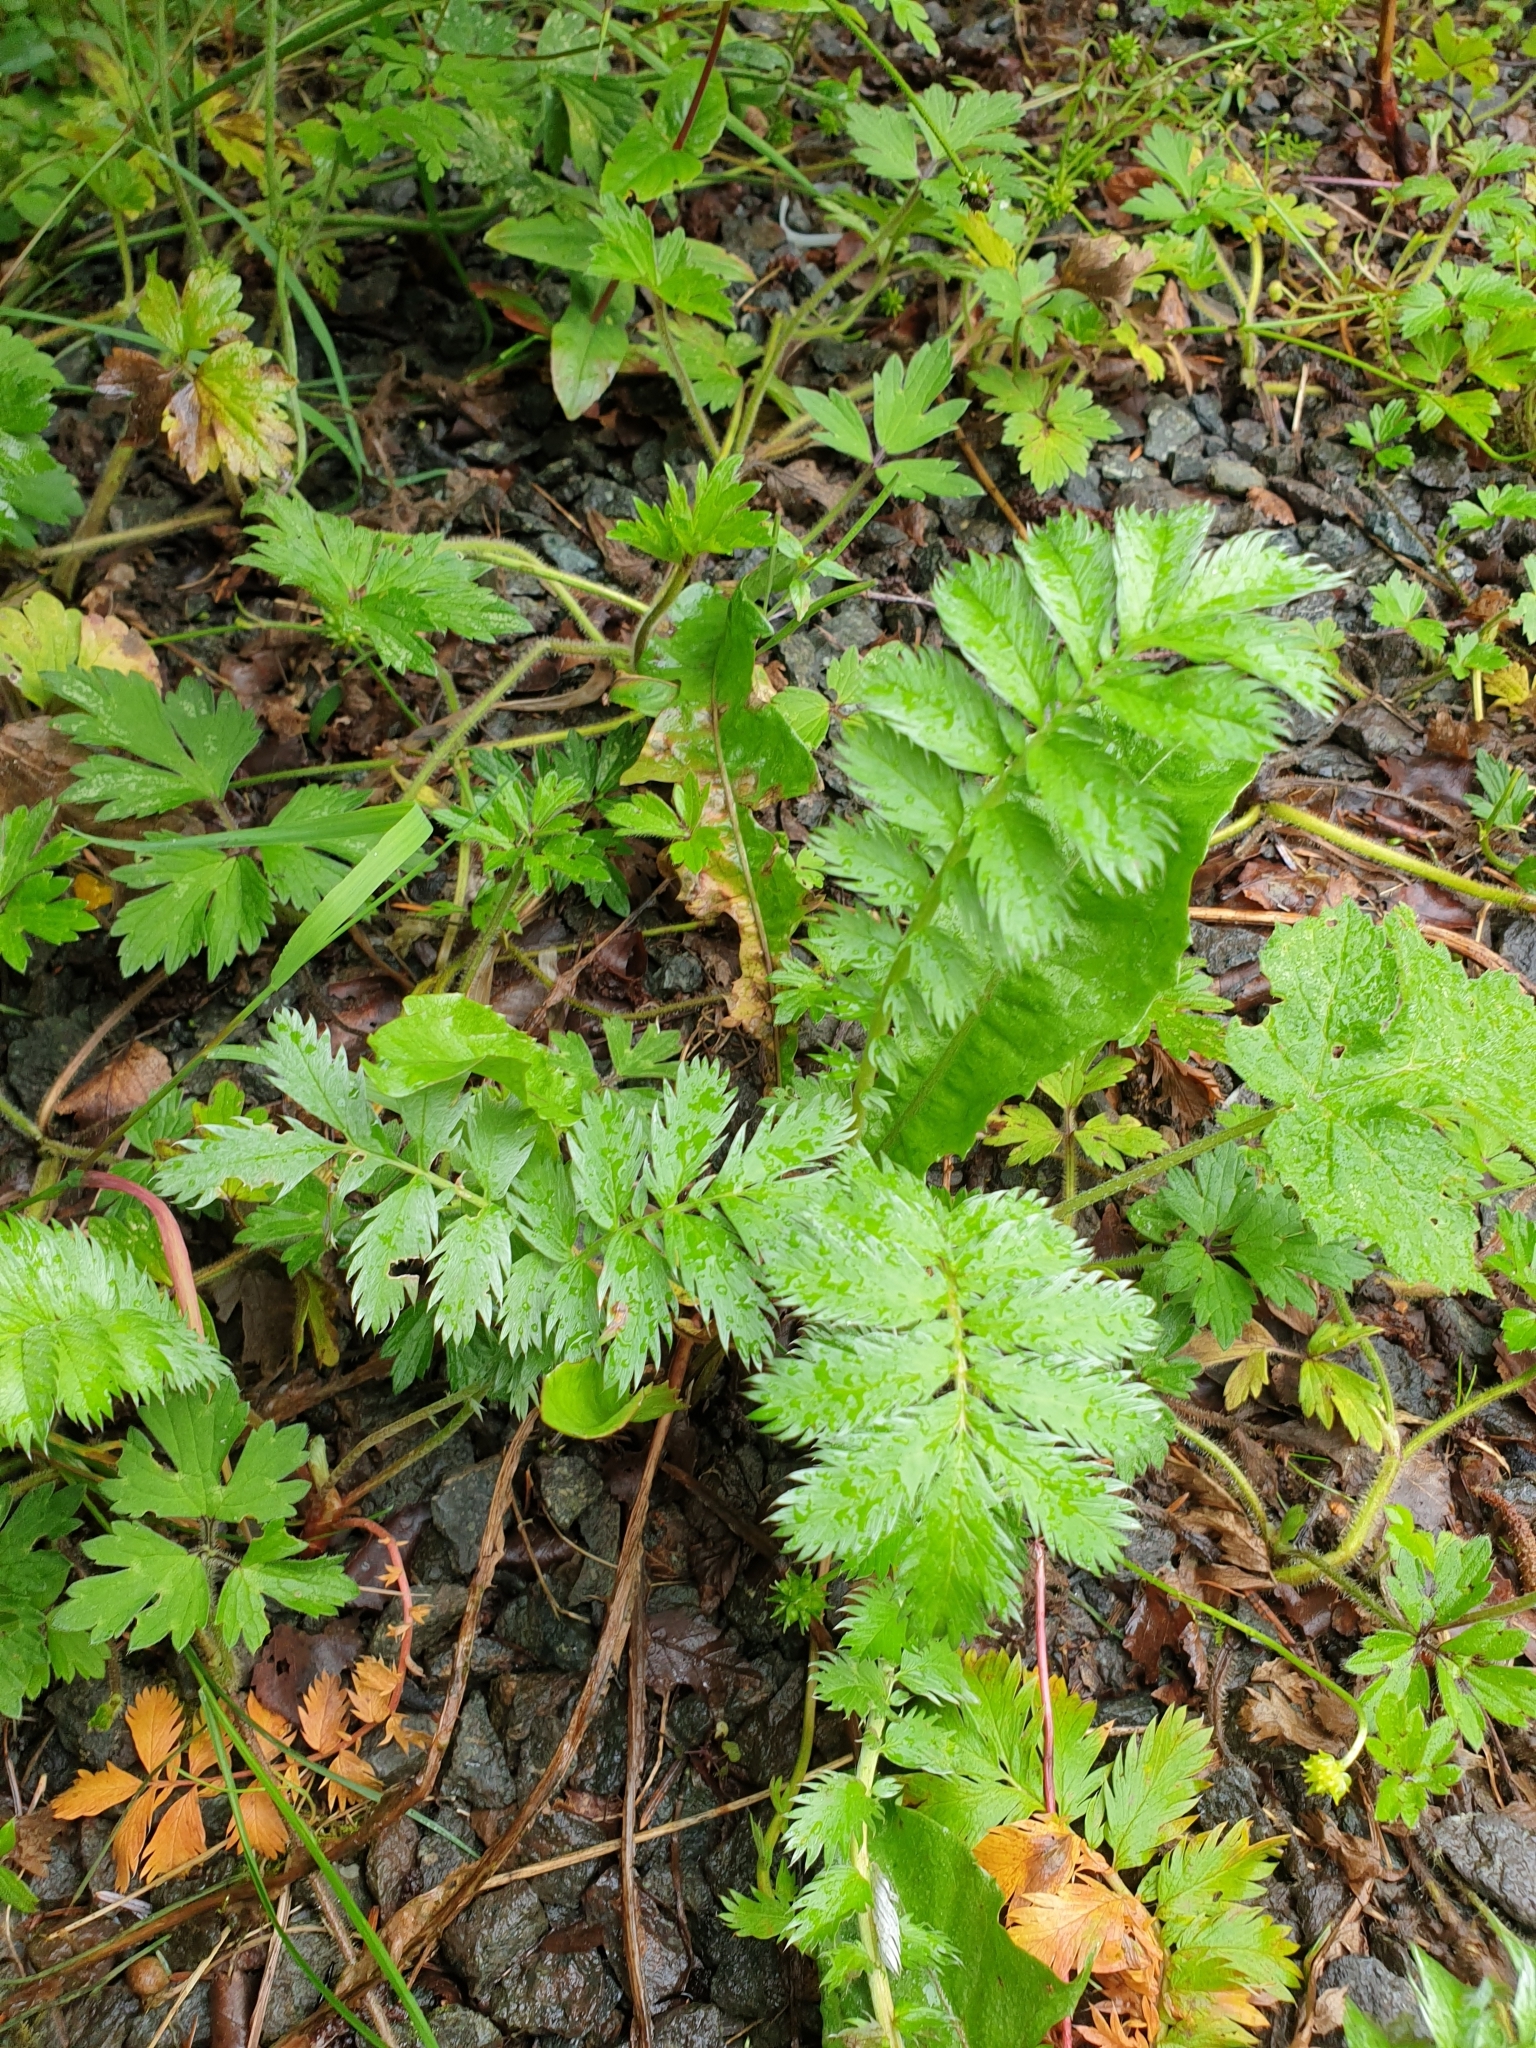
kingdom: Plantae
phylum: Tracheophyta
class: Magnoliopsida
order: Rosales
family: Rosaceae
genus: Argentina
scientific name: Argentina anserina
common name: Common silverweed
